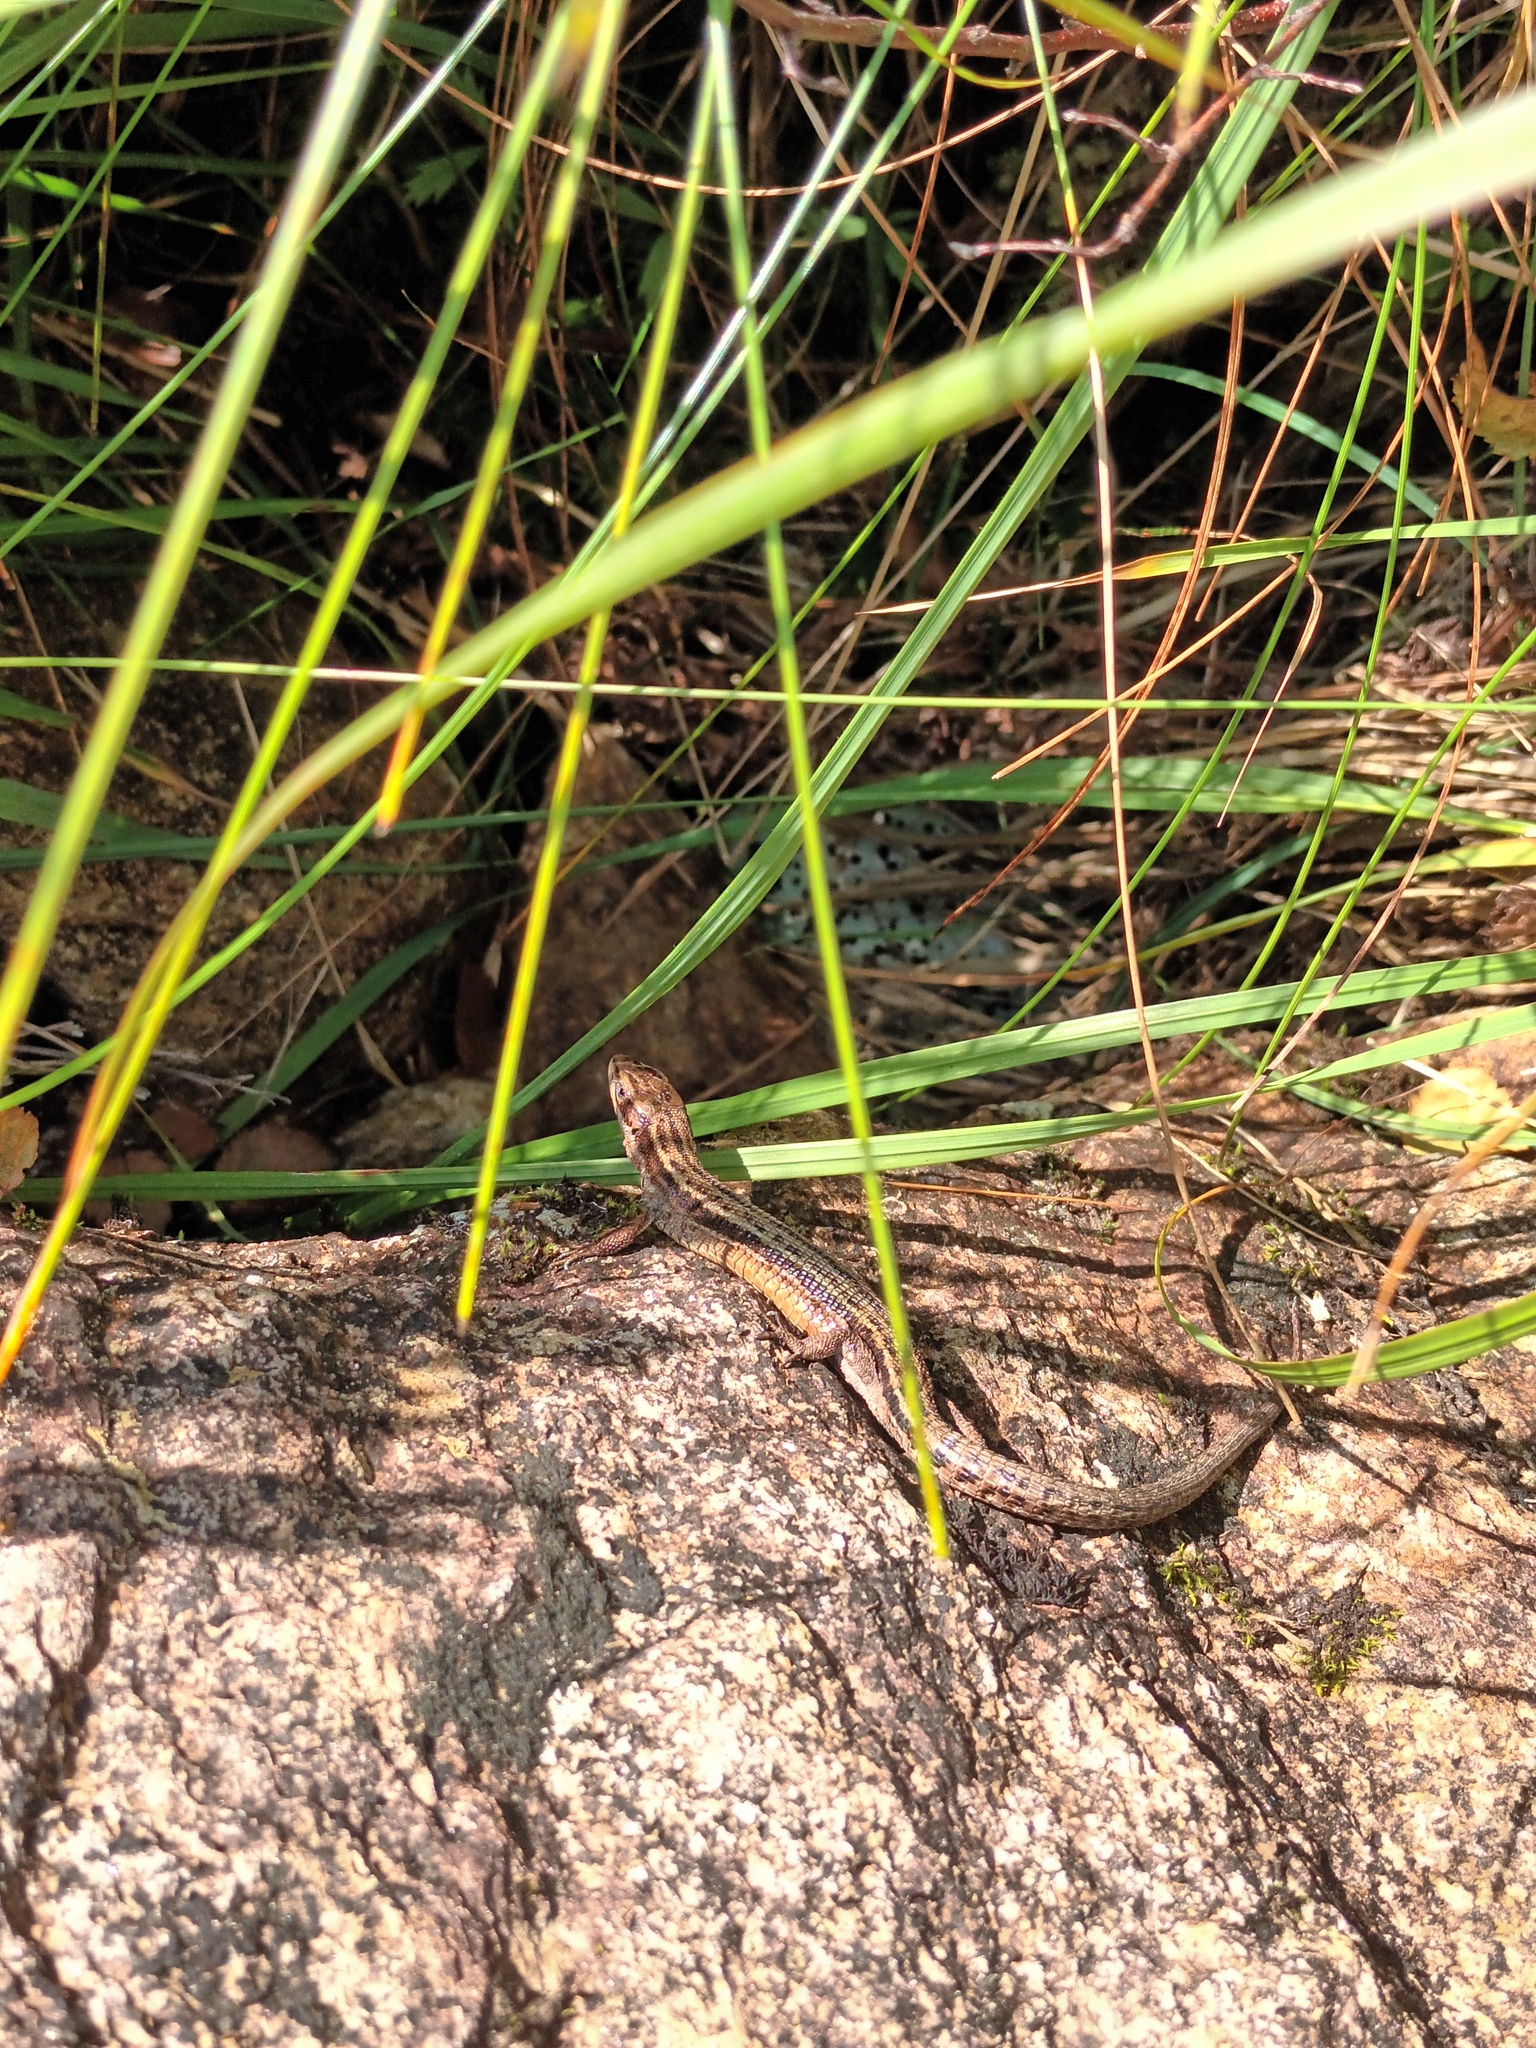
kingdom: Animalia
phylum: Chordata
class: Squamata
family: Lacertidae
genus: Zootoca
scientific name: Zootoca vivipara
